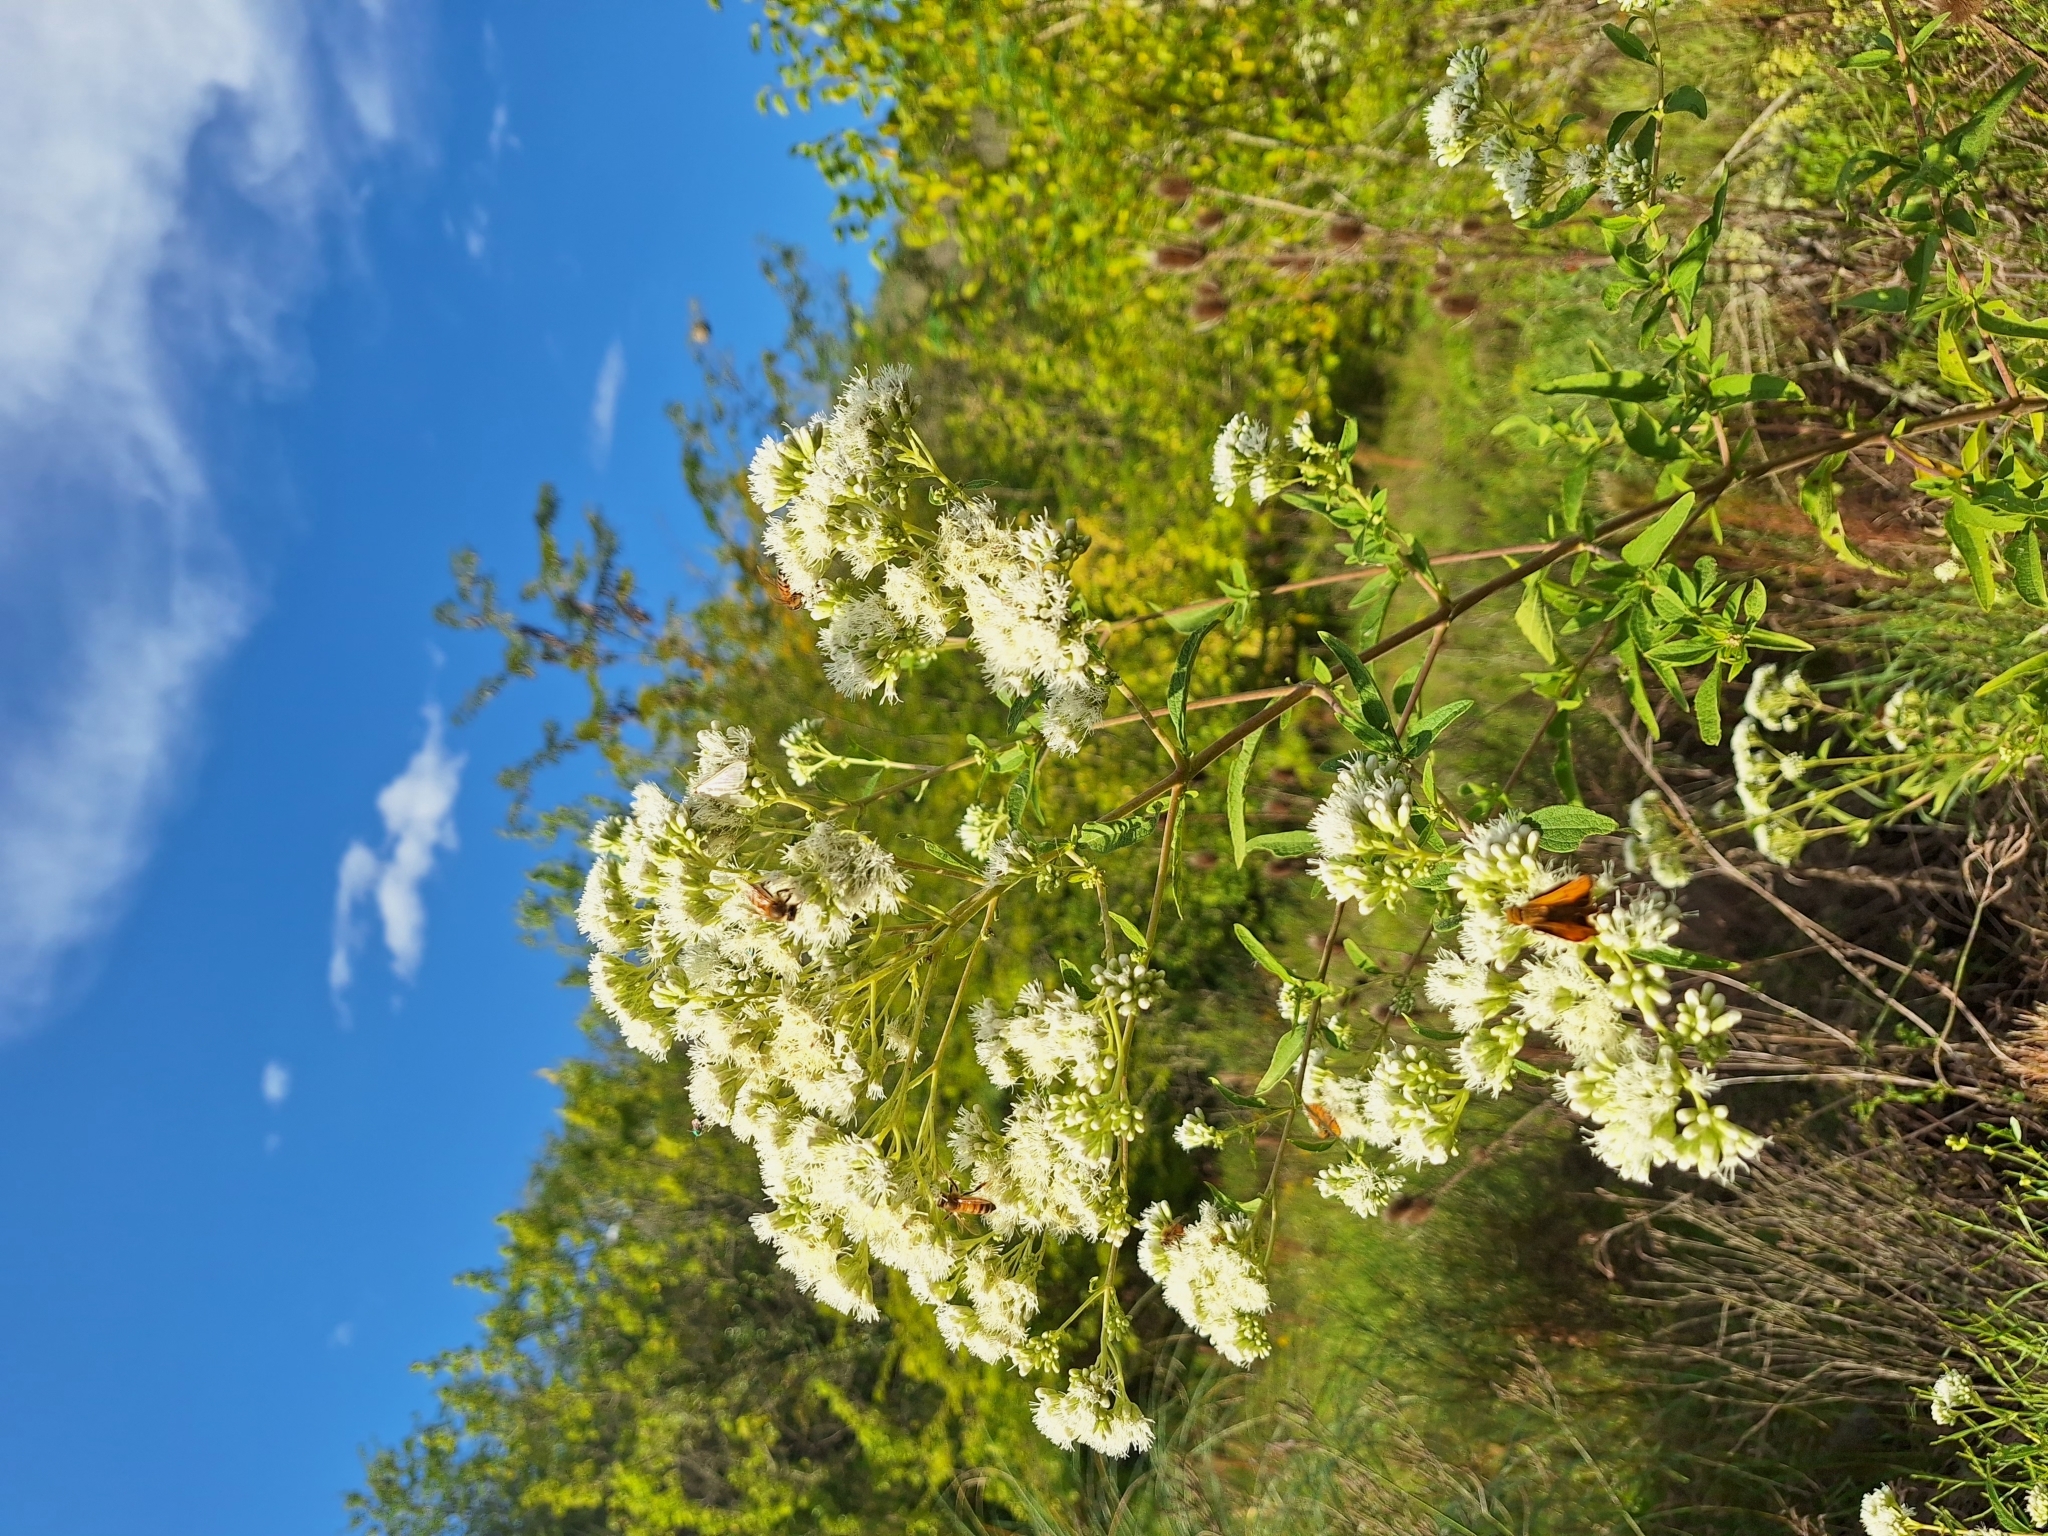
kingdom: Plantae
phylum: Tracheophyta
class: Magnoliopsida
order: Asterales
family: Asteraceae
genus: Austroeupatorium
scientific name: Austroeupatorium inulifolium
